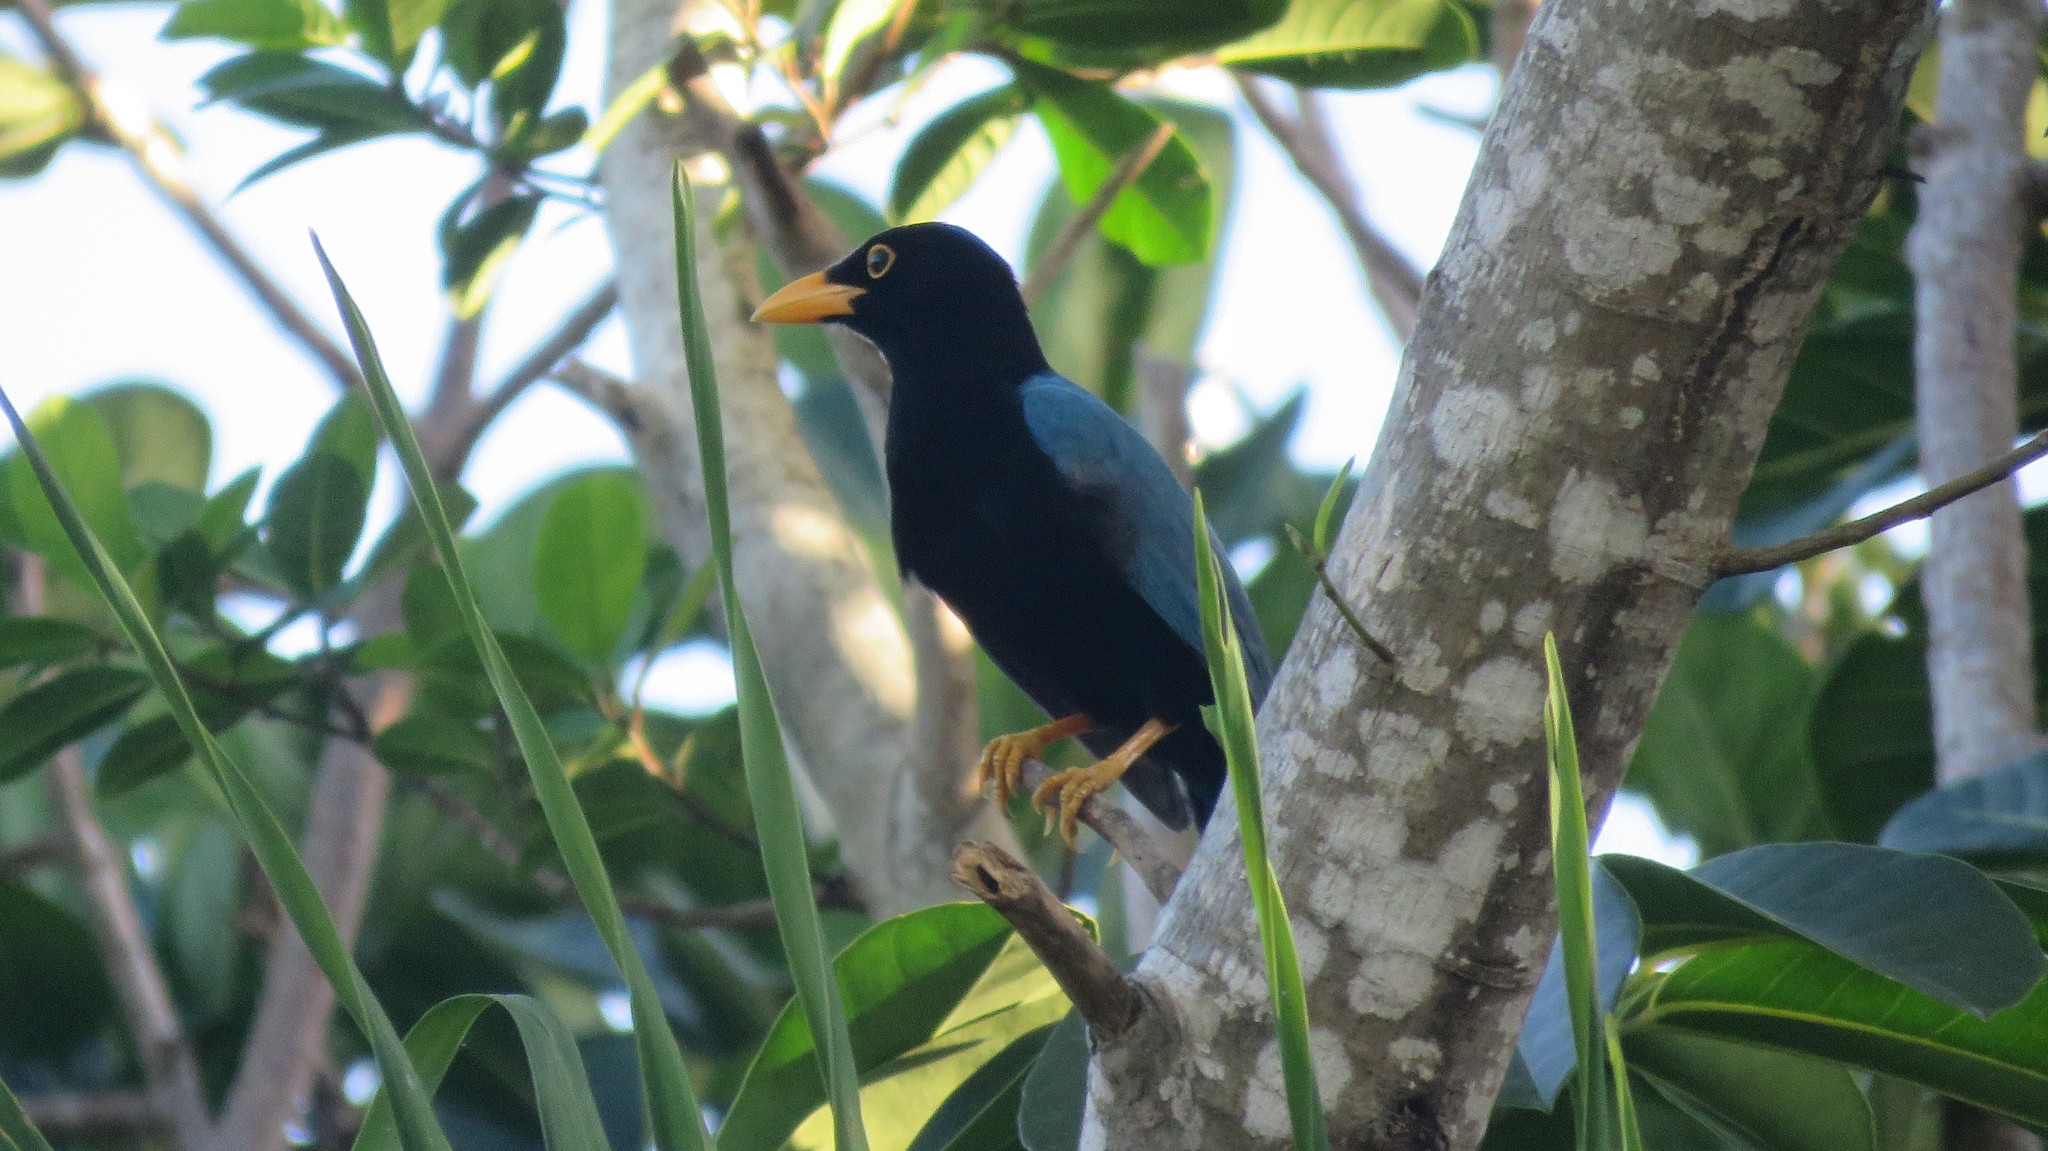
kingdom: Animalia
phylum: Chordata
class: Aves
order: Passeriformes
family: Corvidae
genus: Cyanocorax
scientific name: Cyanocorax yucatanicus
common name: Yucatan jay
